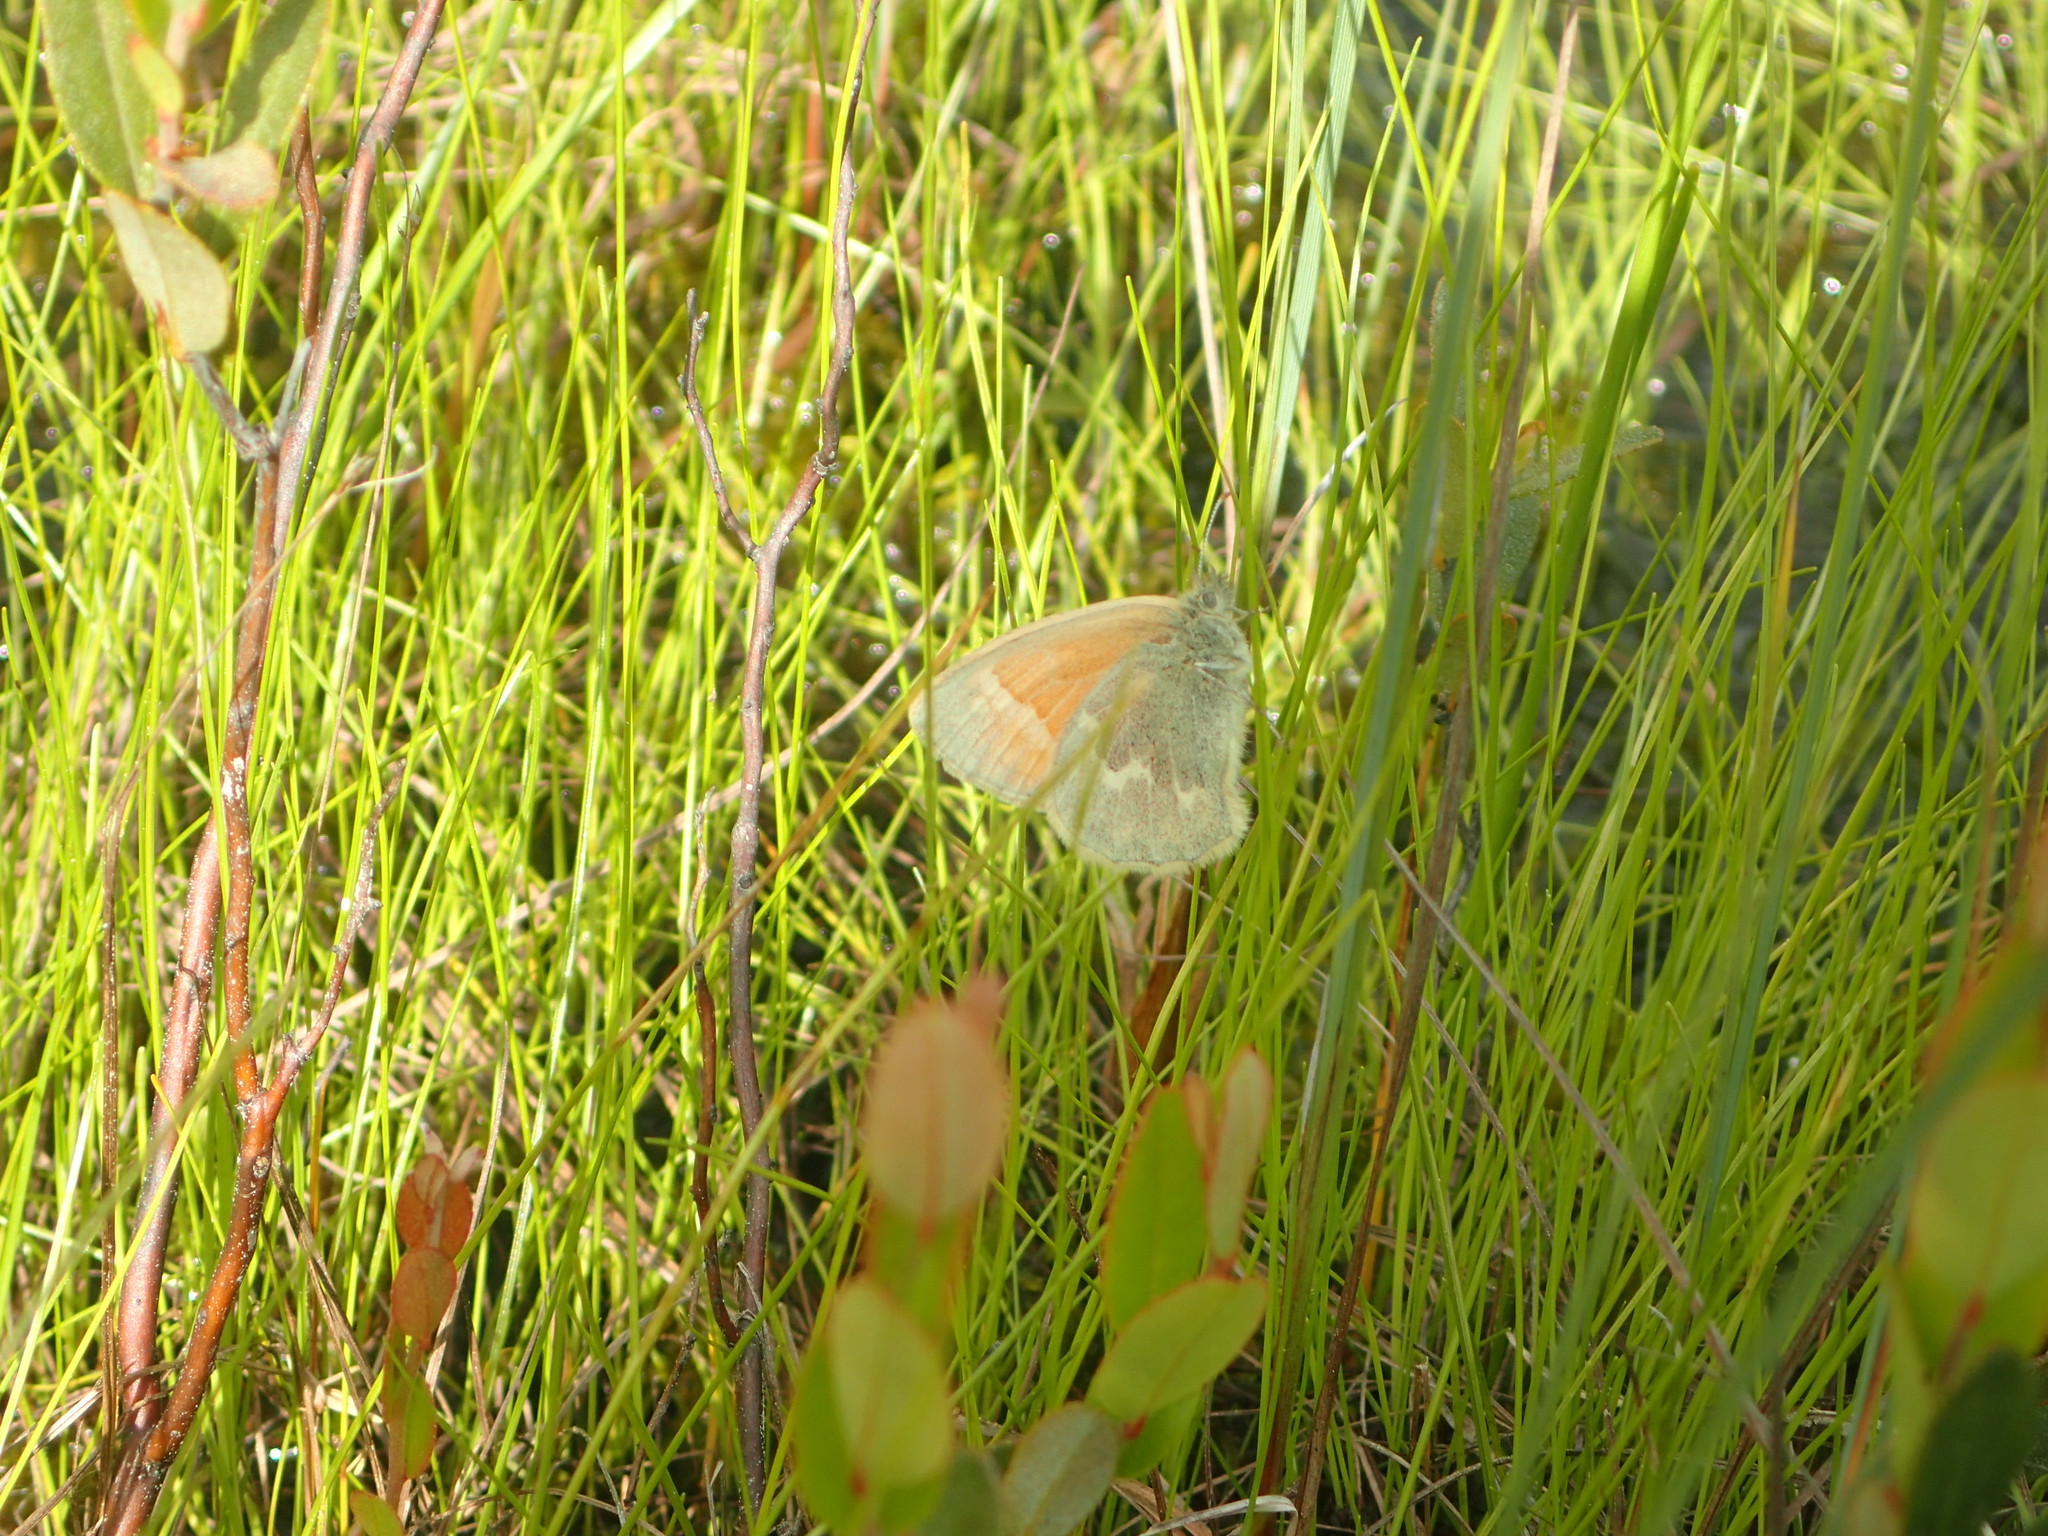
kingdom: Animalia
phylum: Arthropoda
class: Insecta
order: Lepidoptera
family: Nymphalidae
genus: Coenonympha
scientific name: Coenonympha california
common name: Common ringlet
